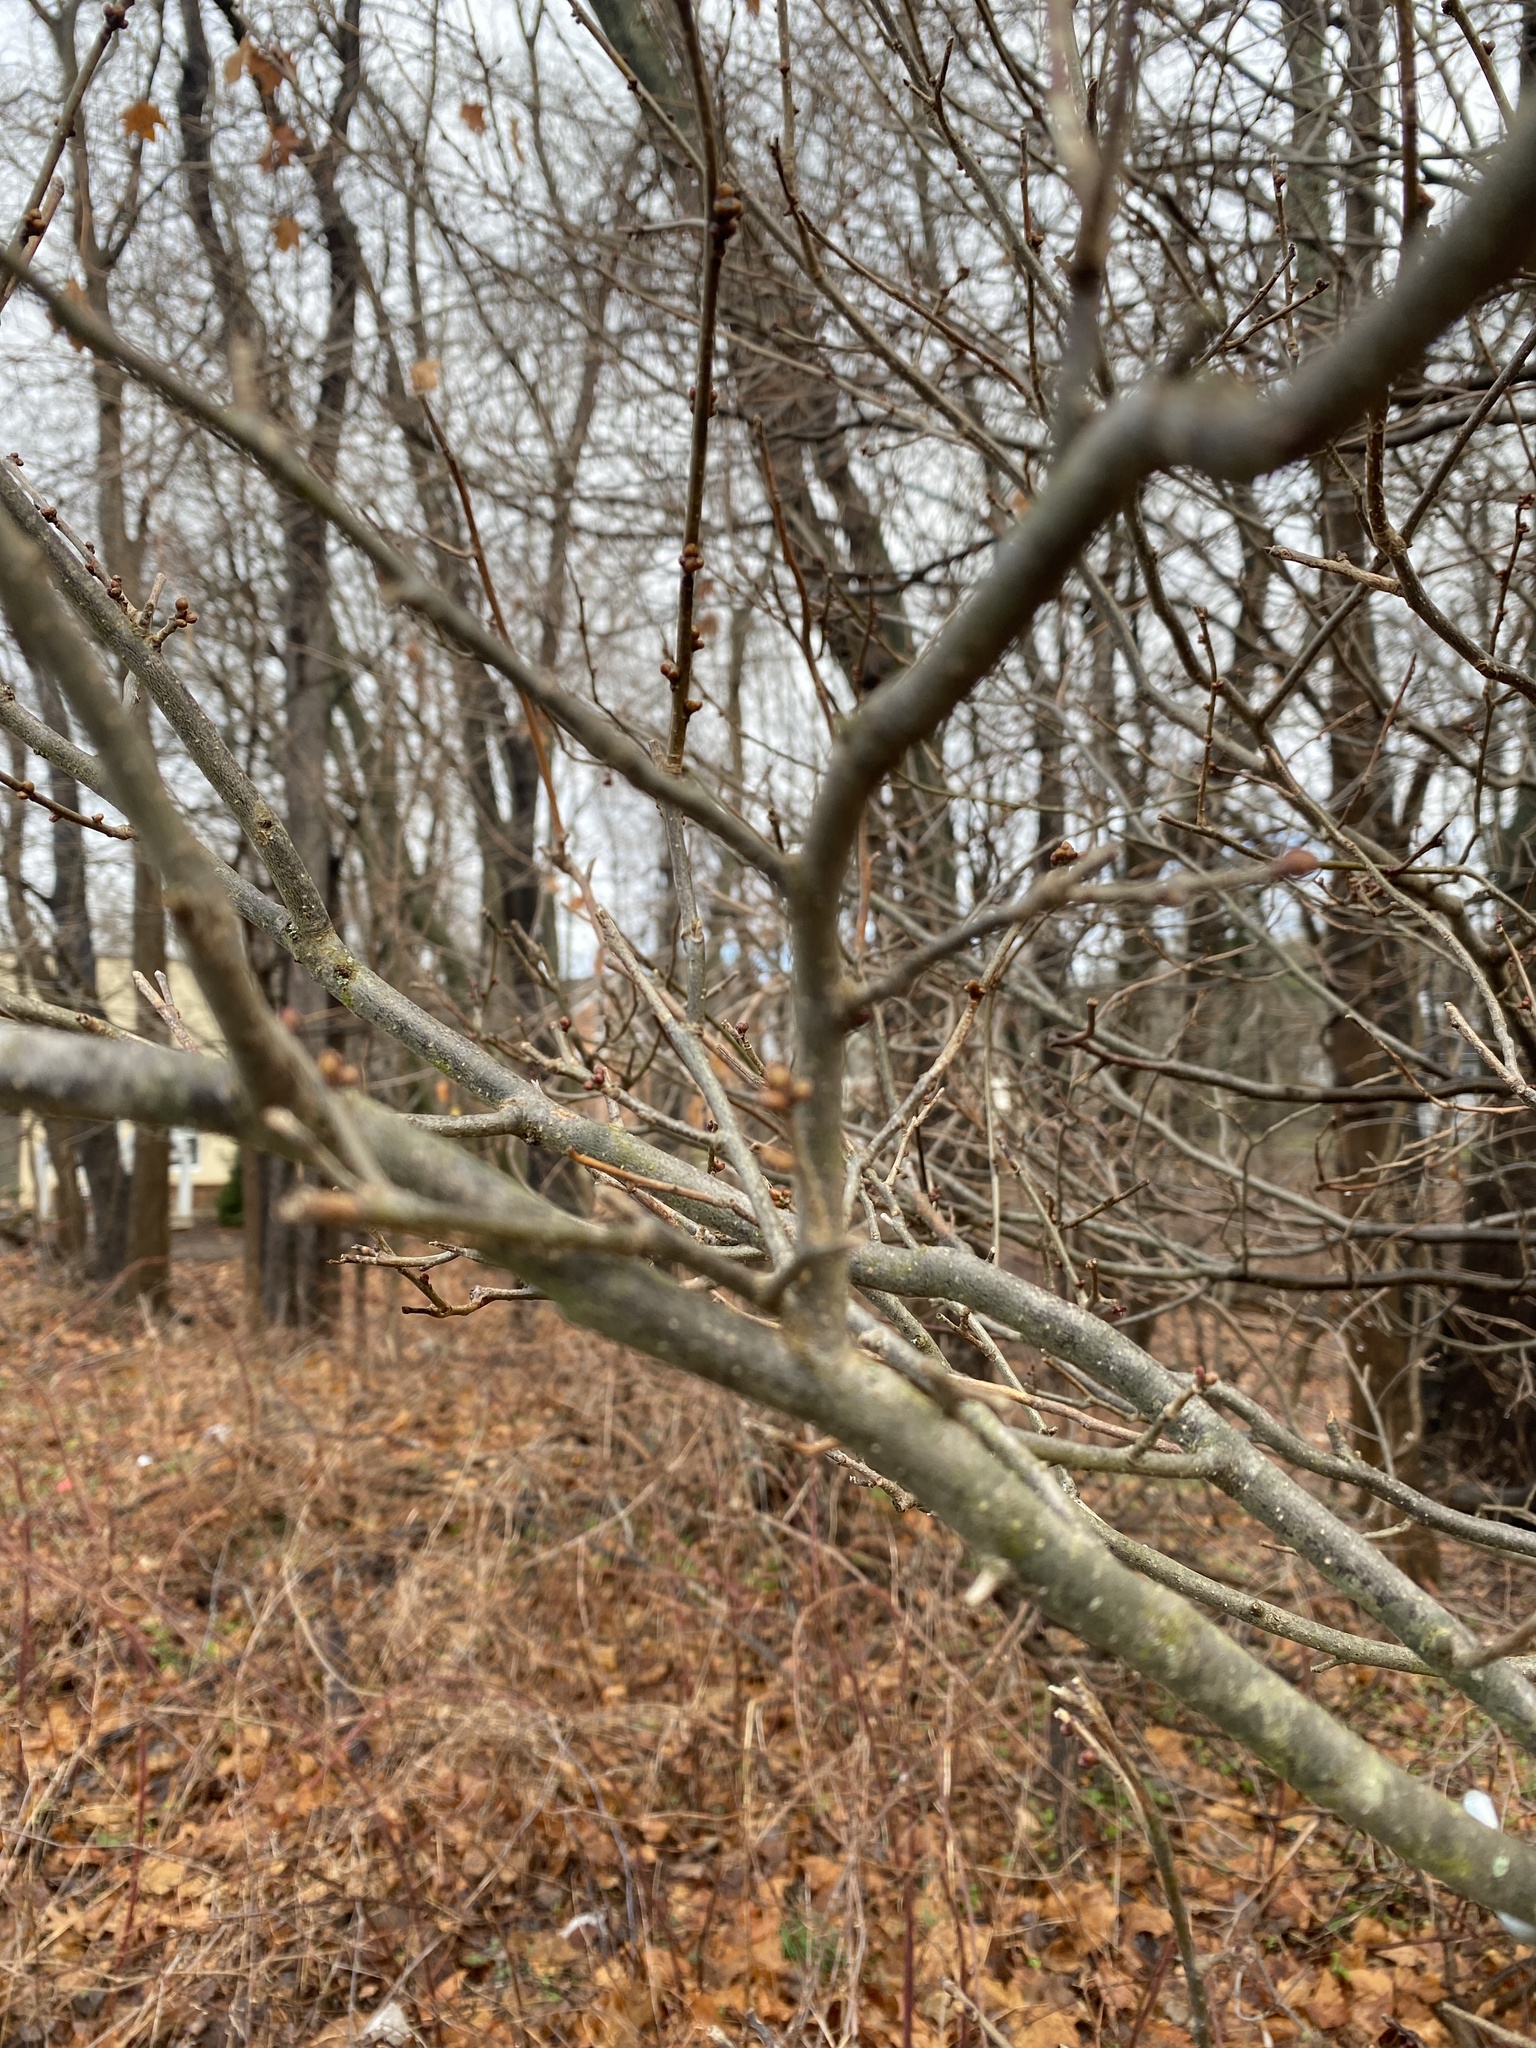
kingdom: Plantae
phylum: Tracheophyta
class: Magnoliopsida
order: Laurales
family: Lauraceae
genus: Lindera
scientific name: Lindera benzoin
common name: Spicebush
